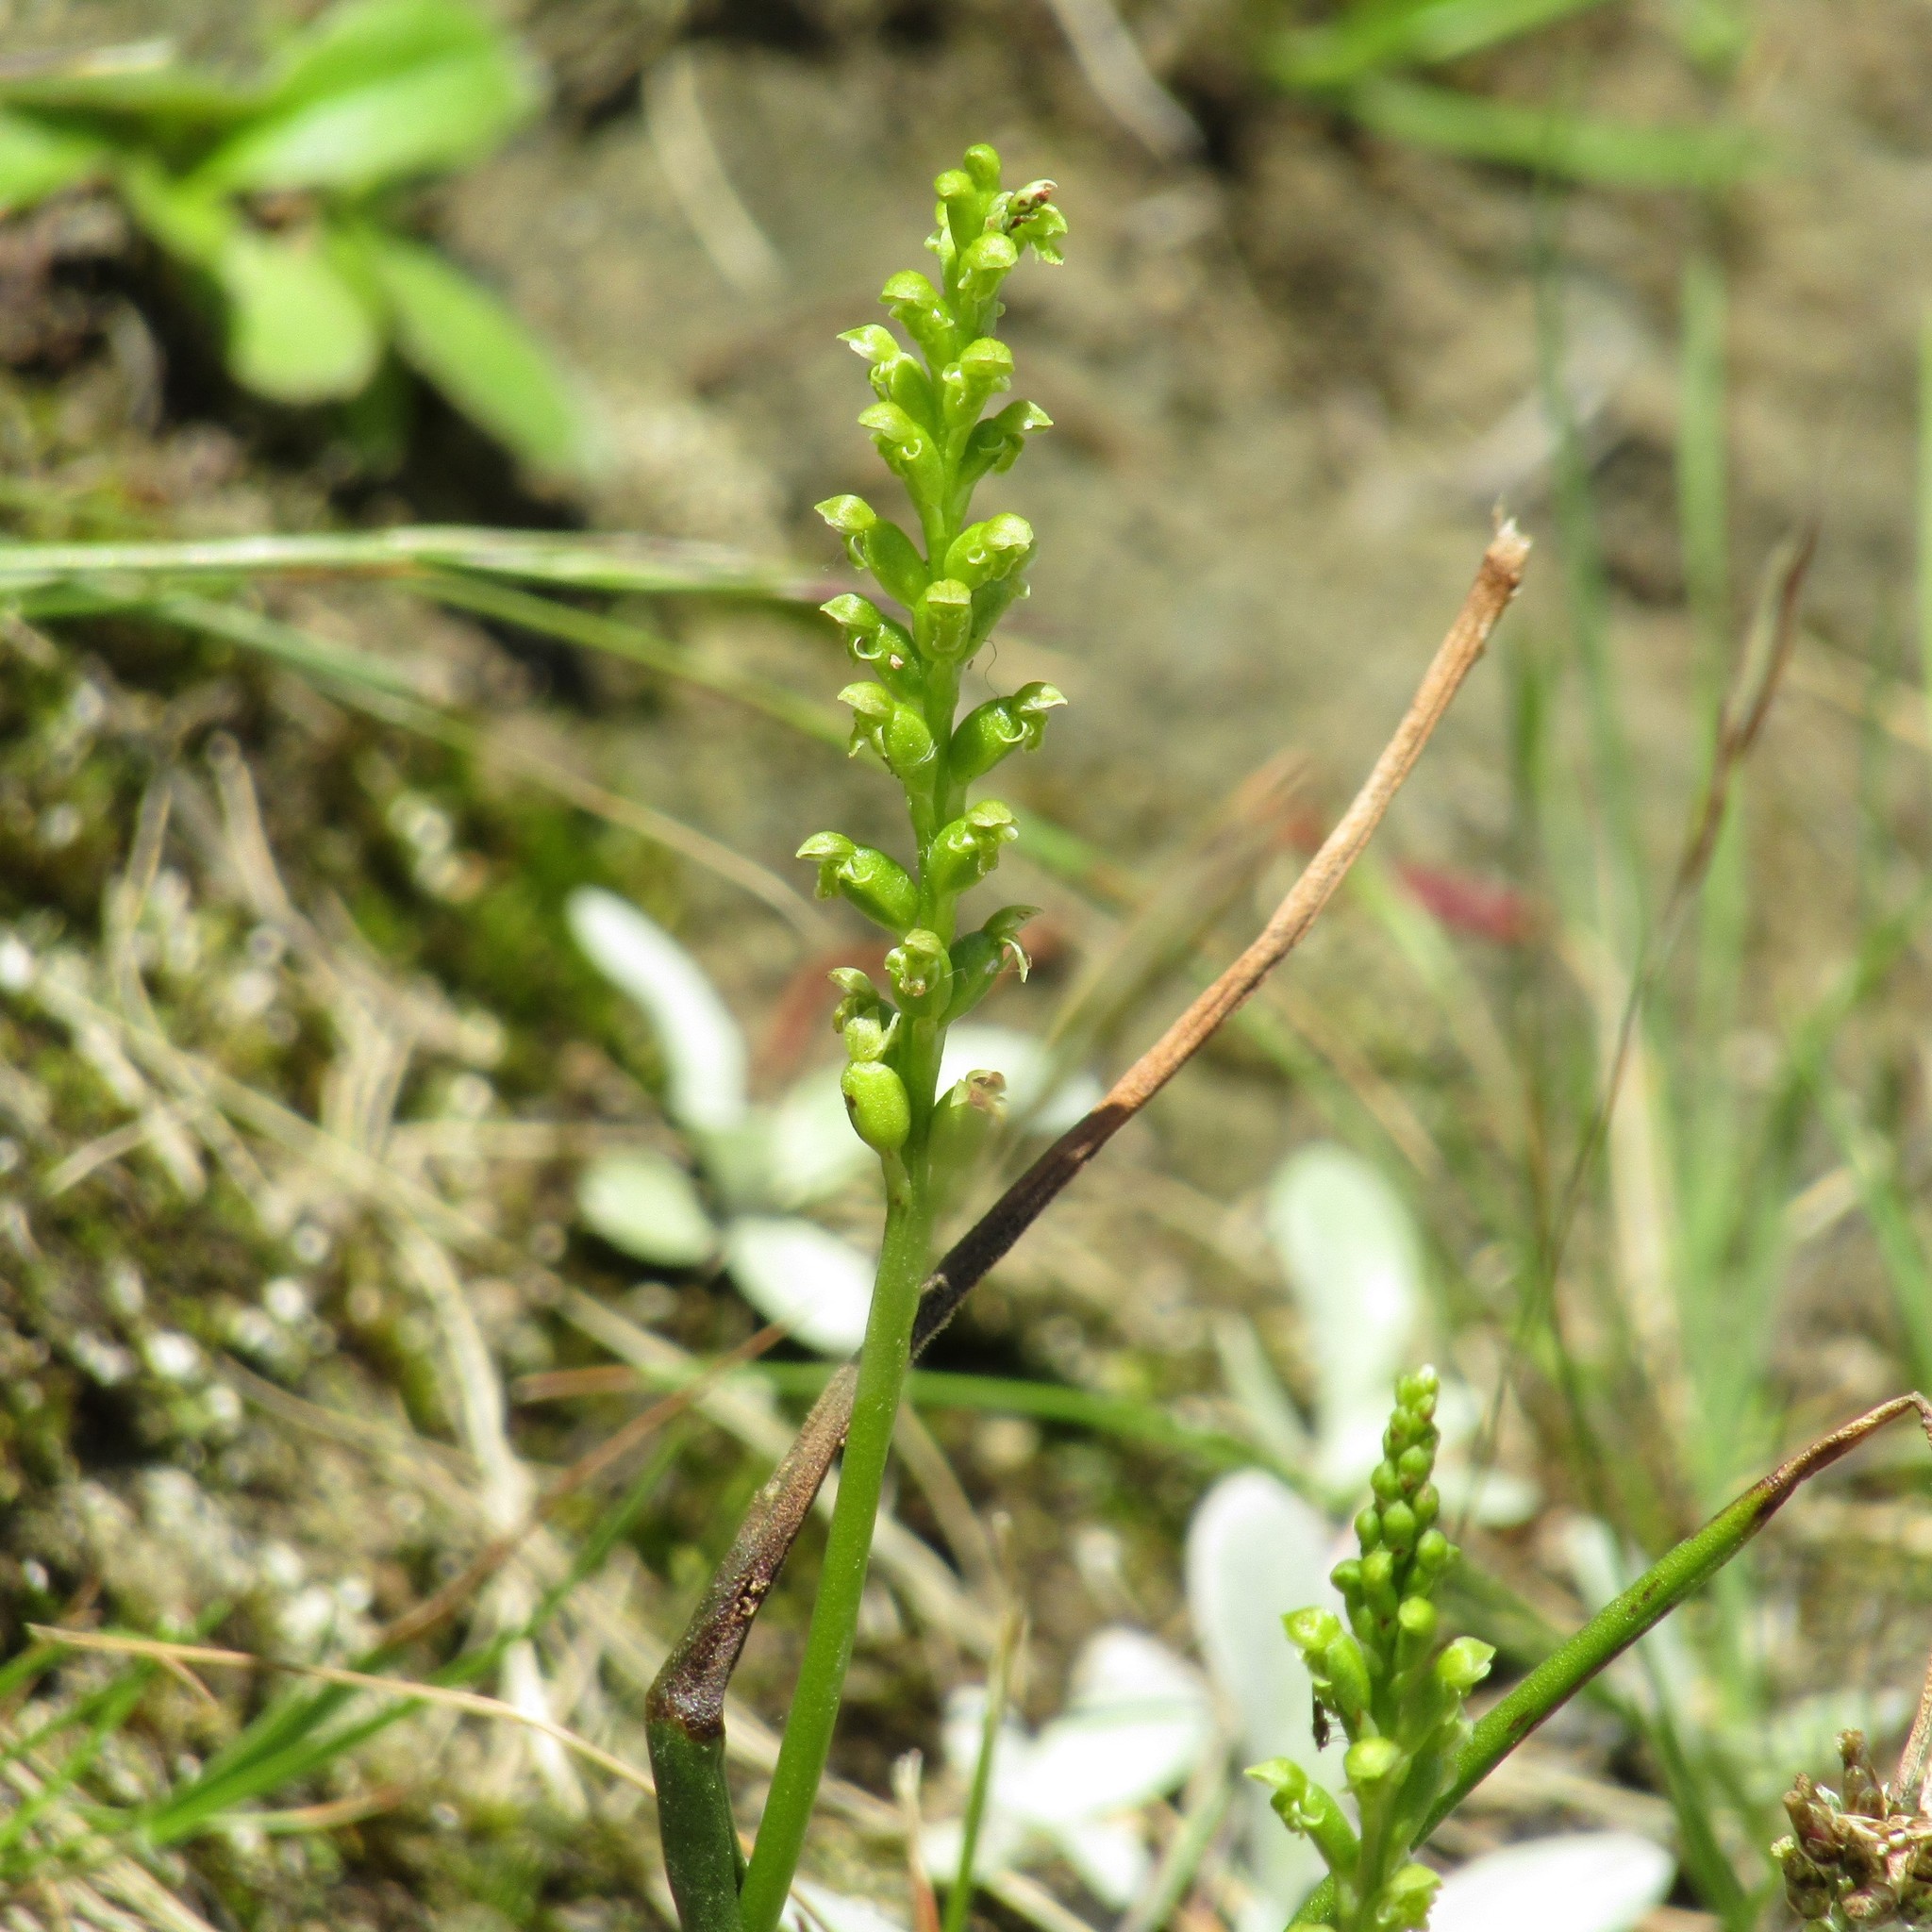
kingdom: Plantae
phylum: Tracheophyta
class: Liliopsida
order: Asparagales
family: Orchidaceae
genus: Microtis
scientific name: Microtis unifolia
